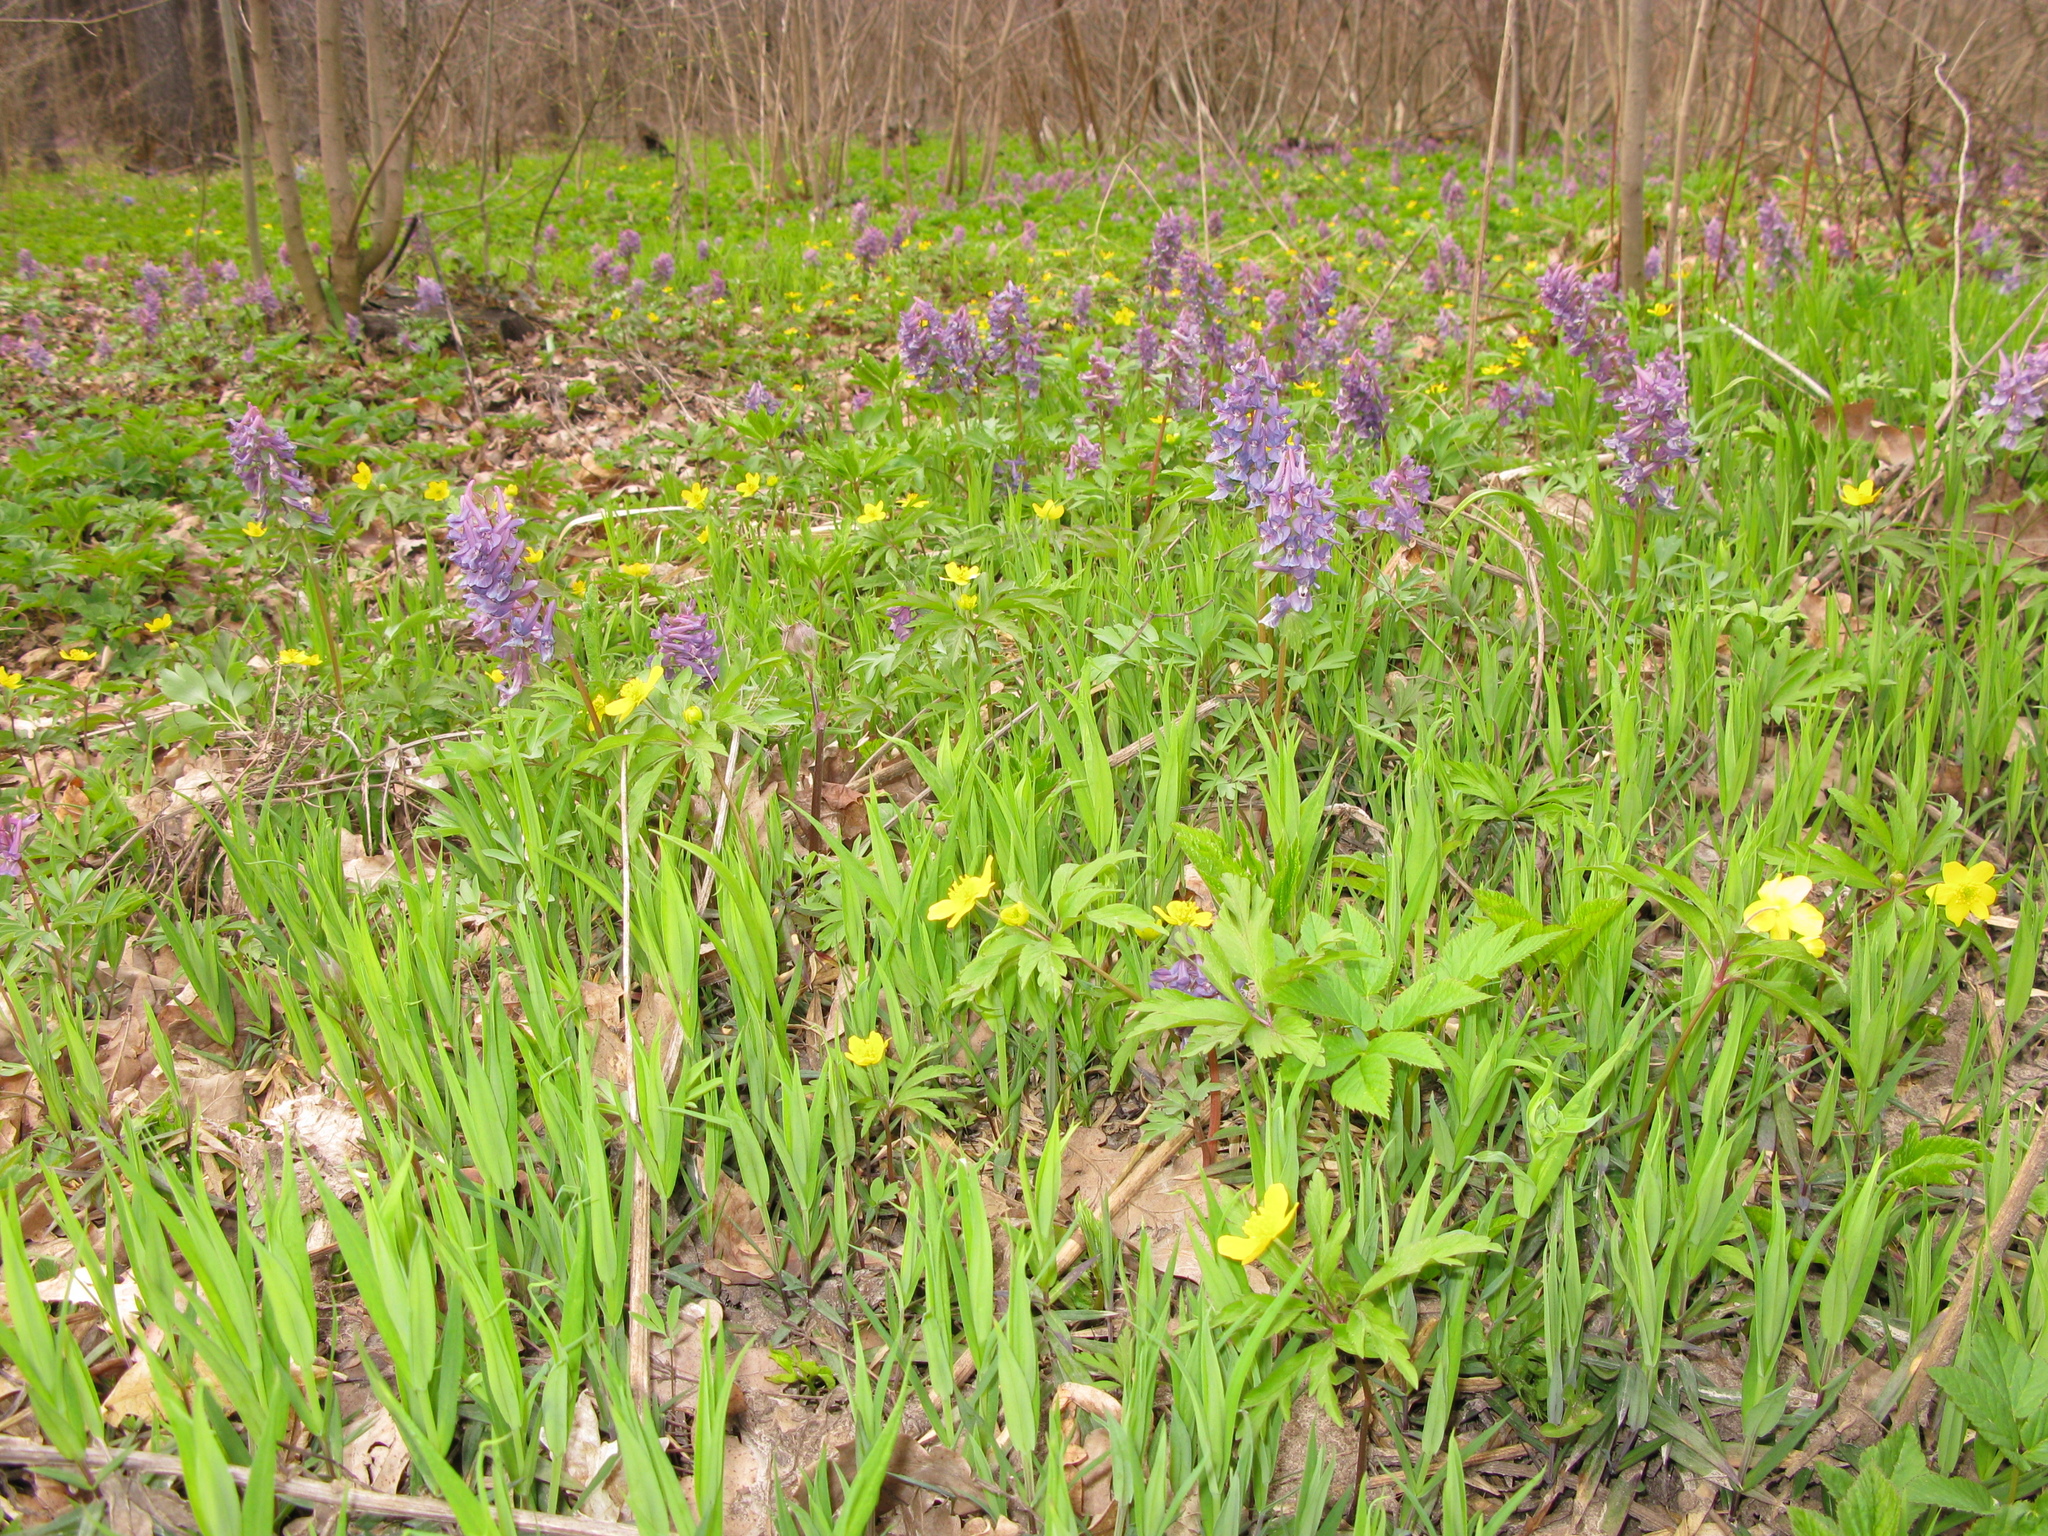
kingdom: Plantae
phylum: Tracheophyta
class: Magnoliopsida
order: Ranunculales
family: Papaveraceae
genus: Corydalis
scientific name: Corydalis solida
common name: Bird-in-a-bush
